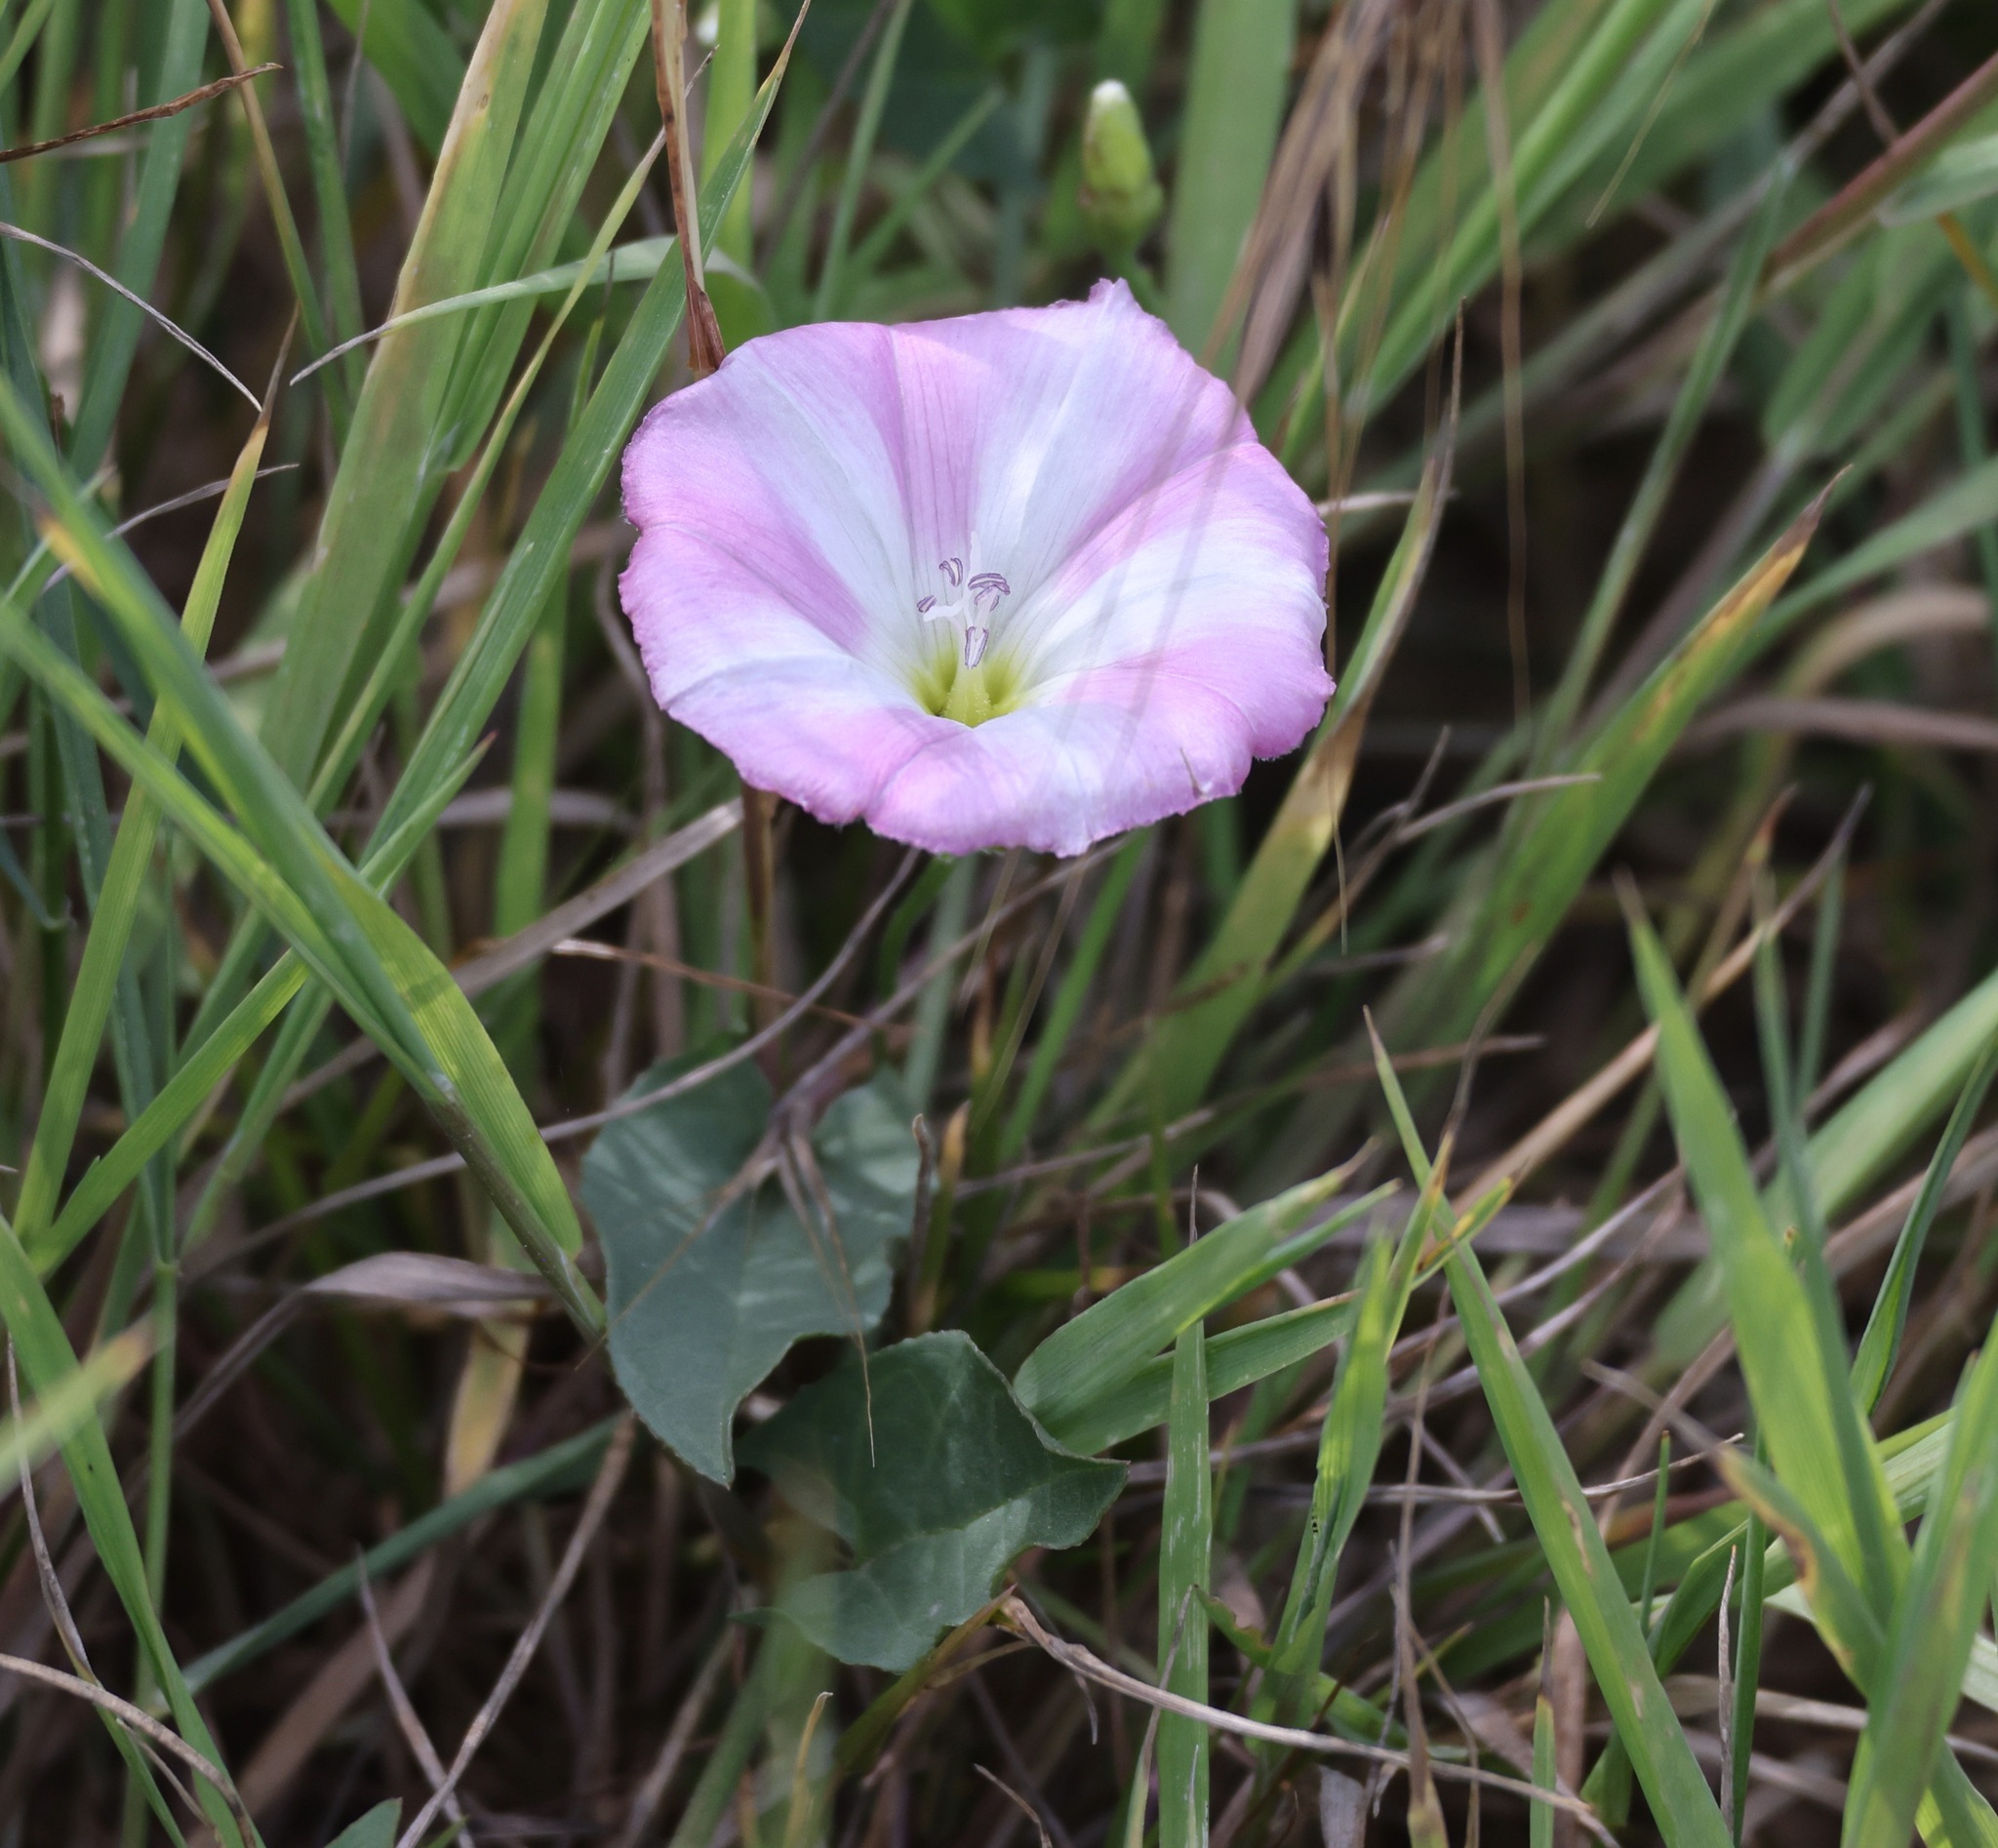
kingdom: Plantae
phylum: Tracheophyta
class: Magnoliopsida
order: Solanales
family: Convolvulaceae
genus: Convolvulus
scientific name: Convolvulus arvensis
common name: Field bindweed
